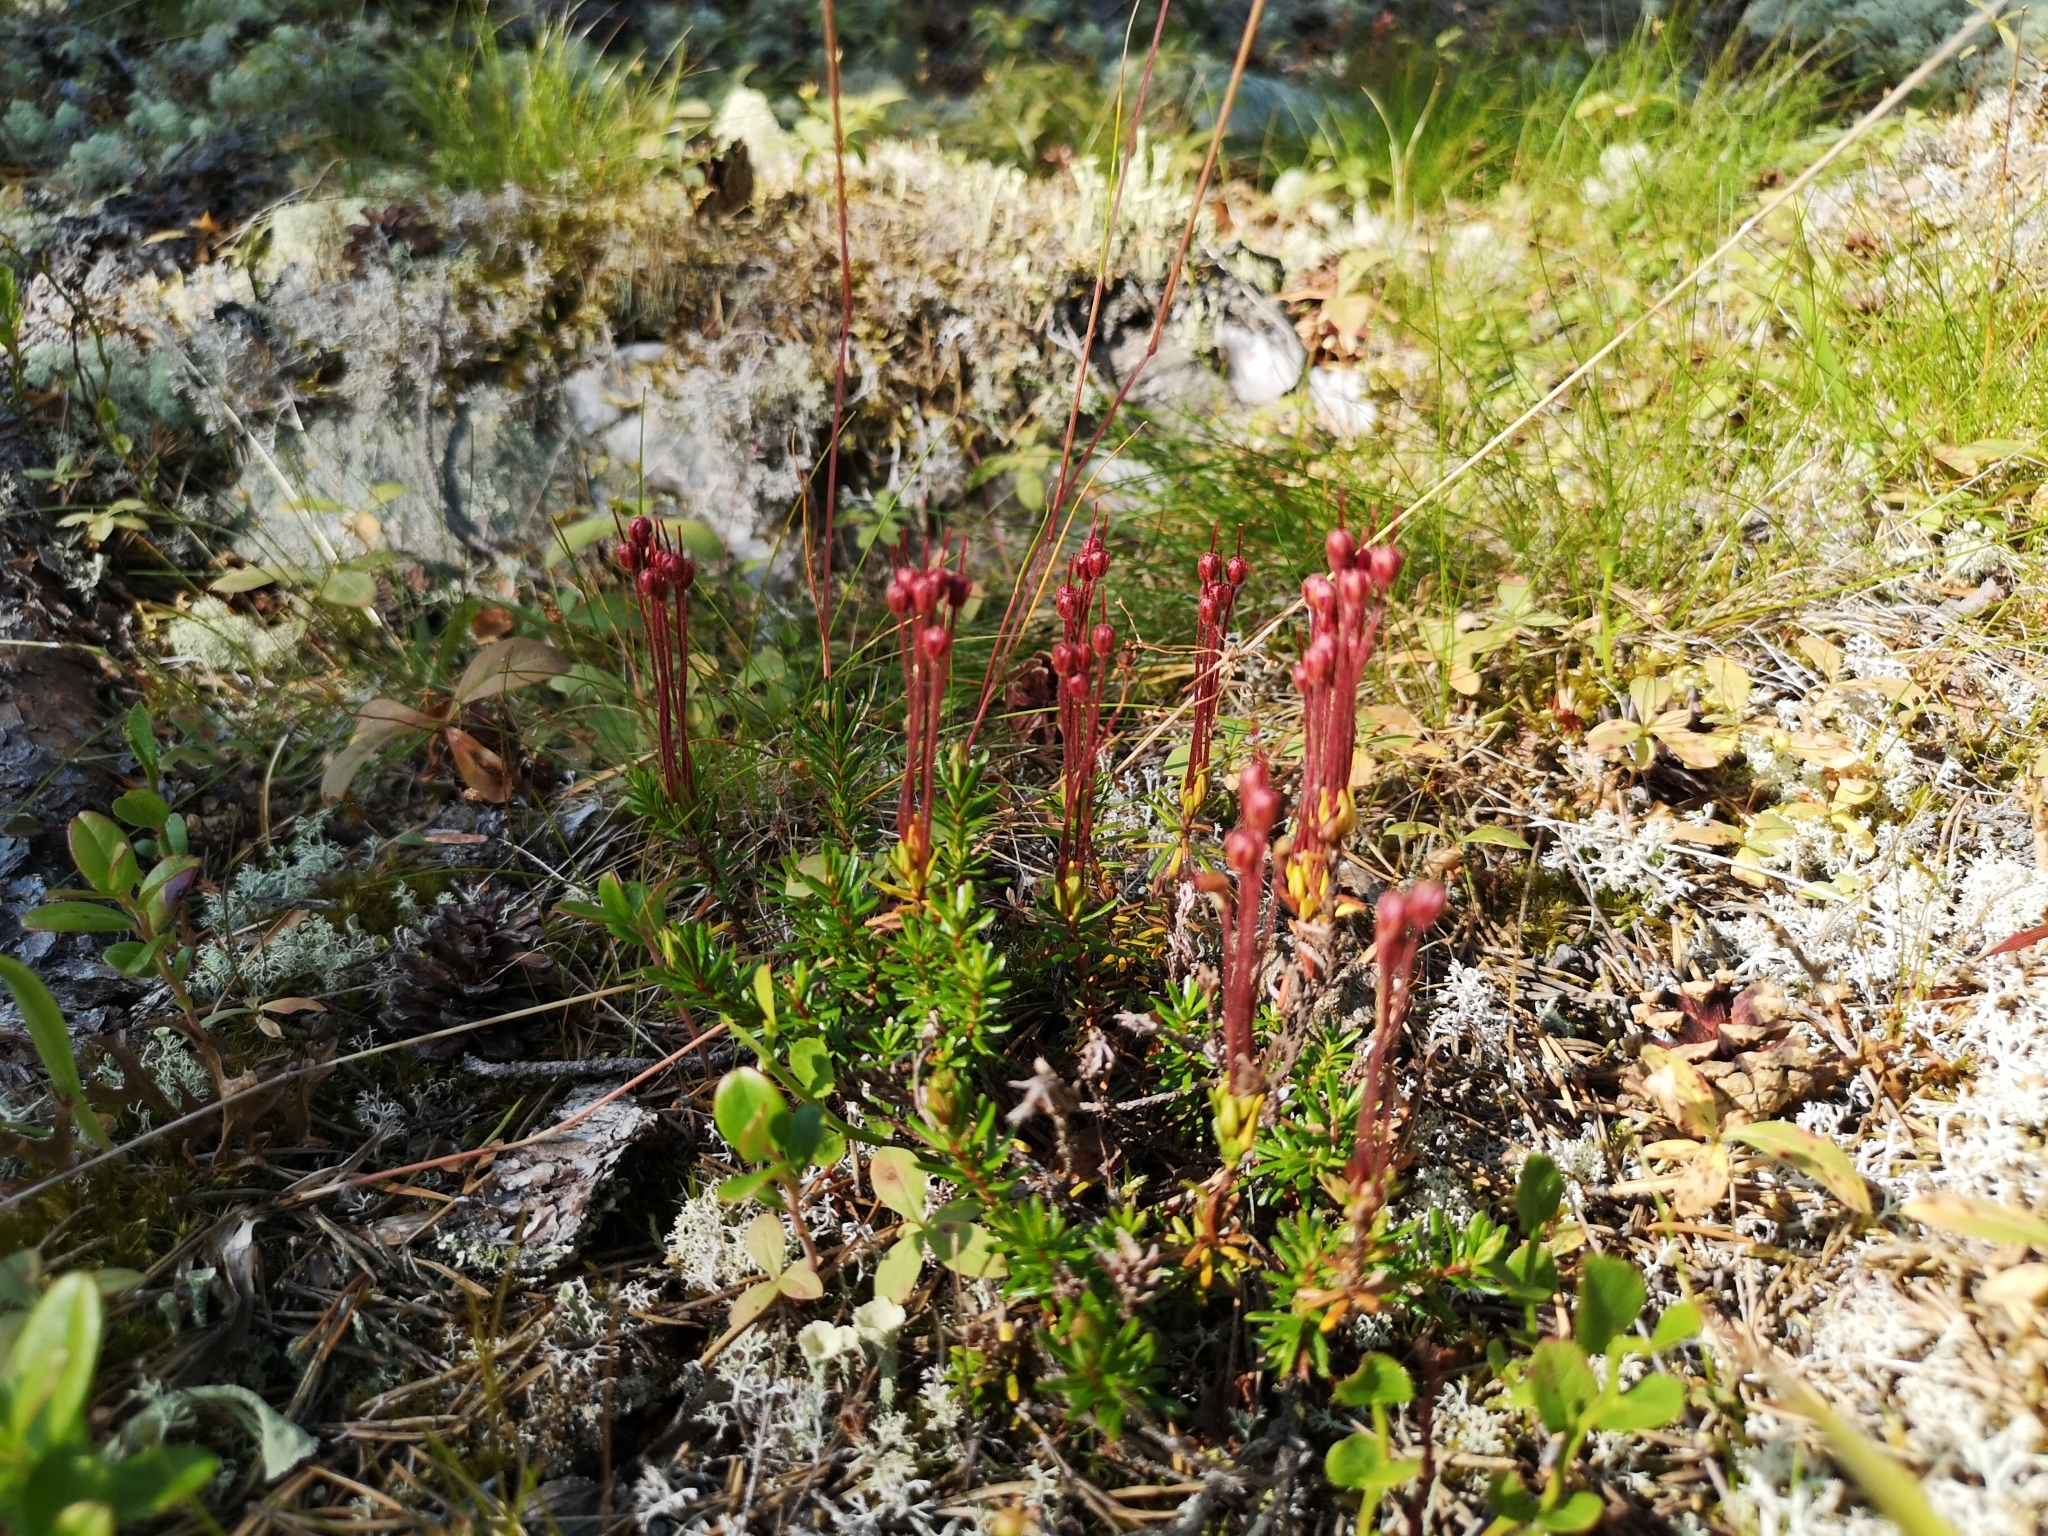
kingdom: Plantae
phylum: Tracheophyta
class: Magnoliopsida
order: Ericales
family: Ericaceae
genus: Phyllodoce
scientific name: Phyllodoce caerulea
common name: Blue heath
